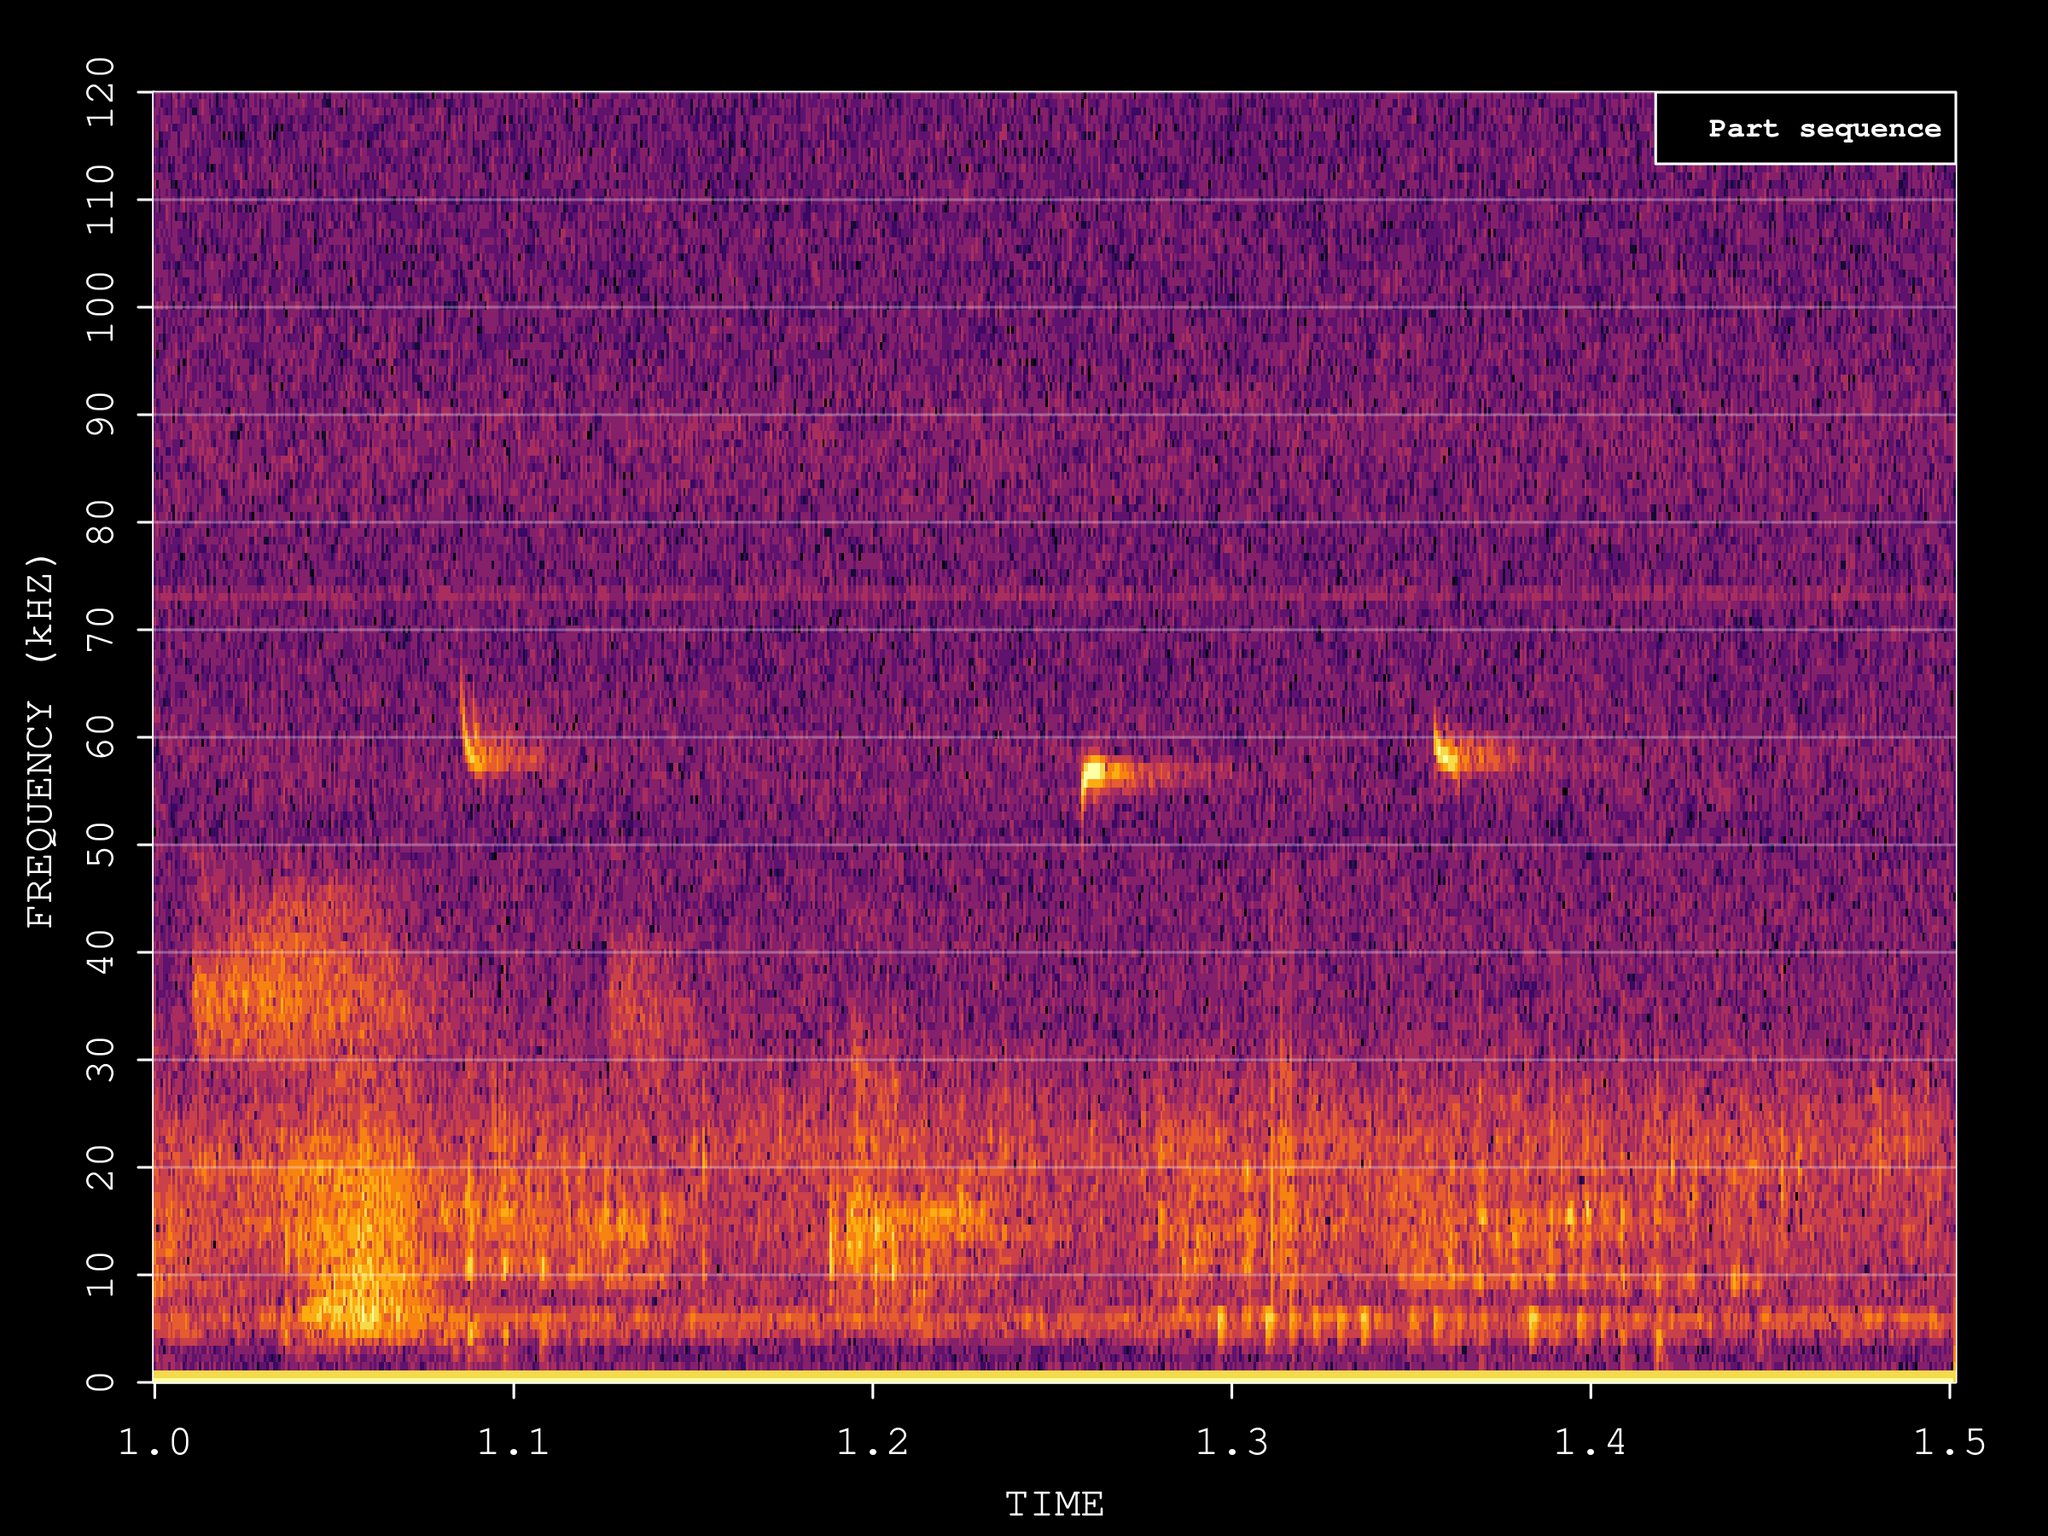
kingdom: Animalia
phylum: Chordata
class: Mammalia
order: Chiroptera
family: Vespertilionidae
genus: Pipistrellus
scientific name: Pipistrellus pygmaeus
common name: Soprano pipistrelle
